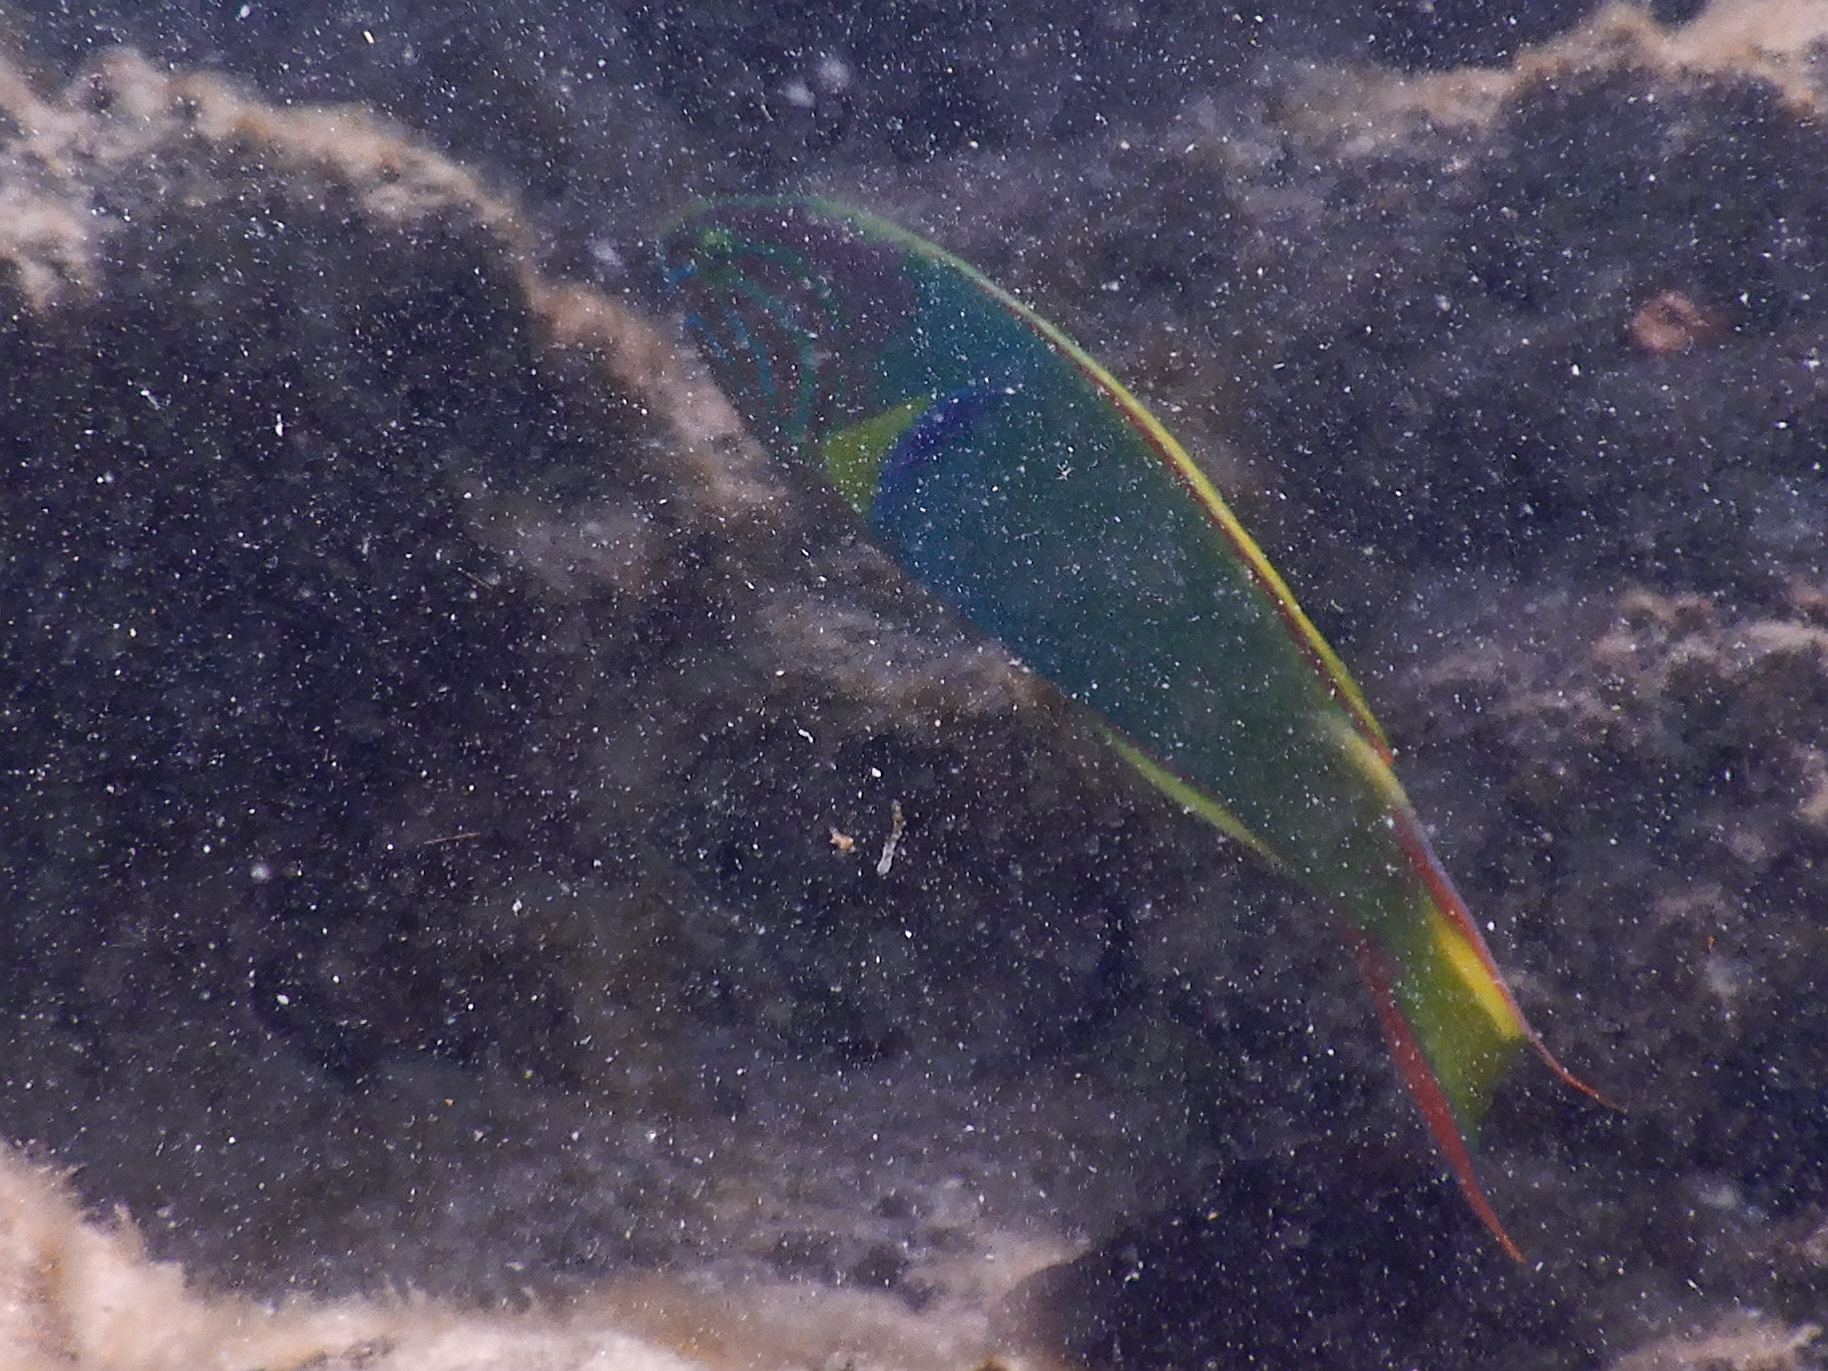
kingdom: Animalia
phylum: Chordata
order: Perciformes
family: Labridae
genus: Thalassoma
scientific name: Thalassoma lutescens
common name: Green moon wrasse
